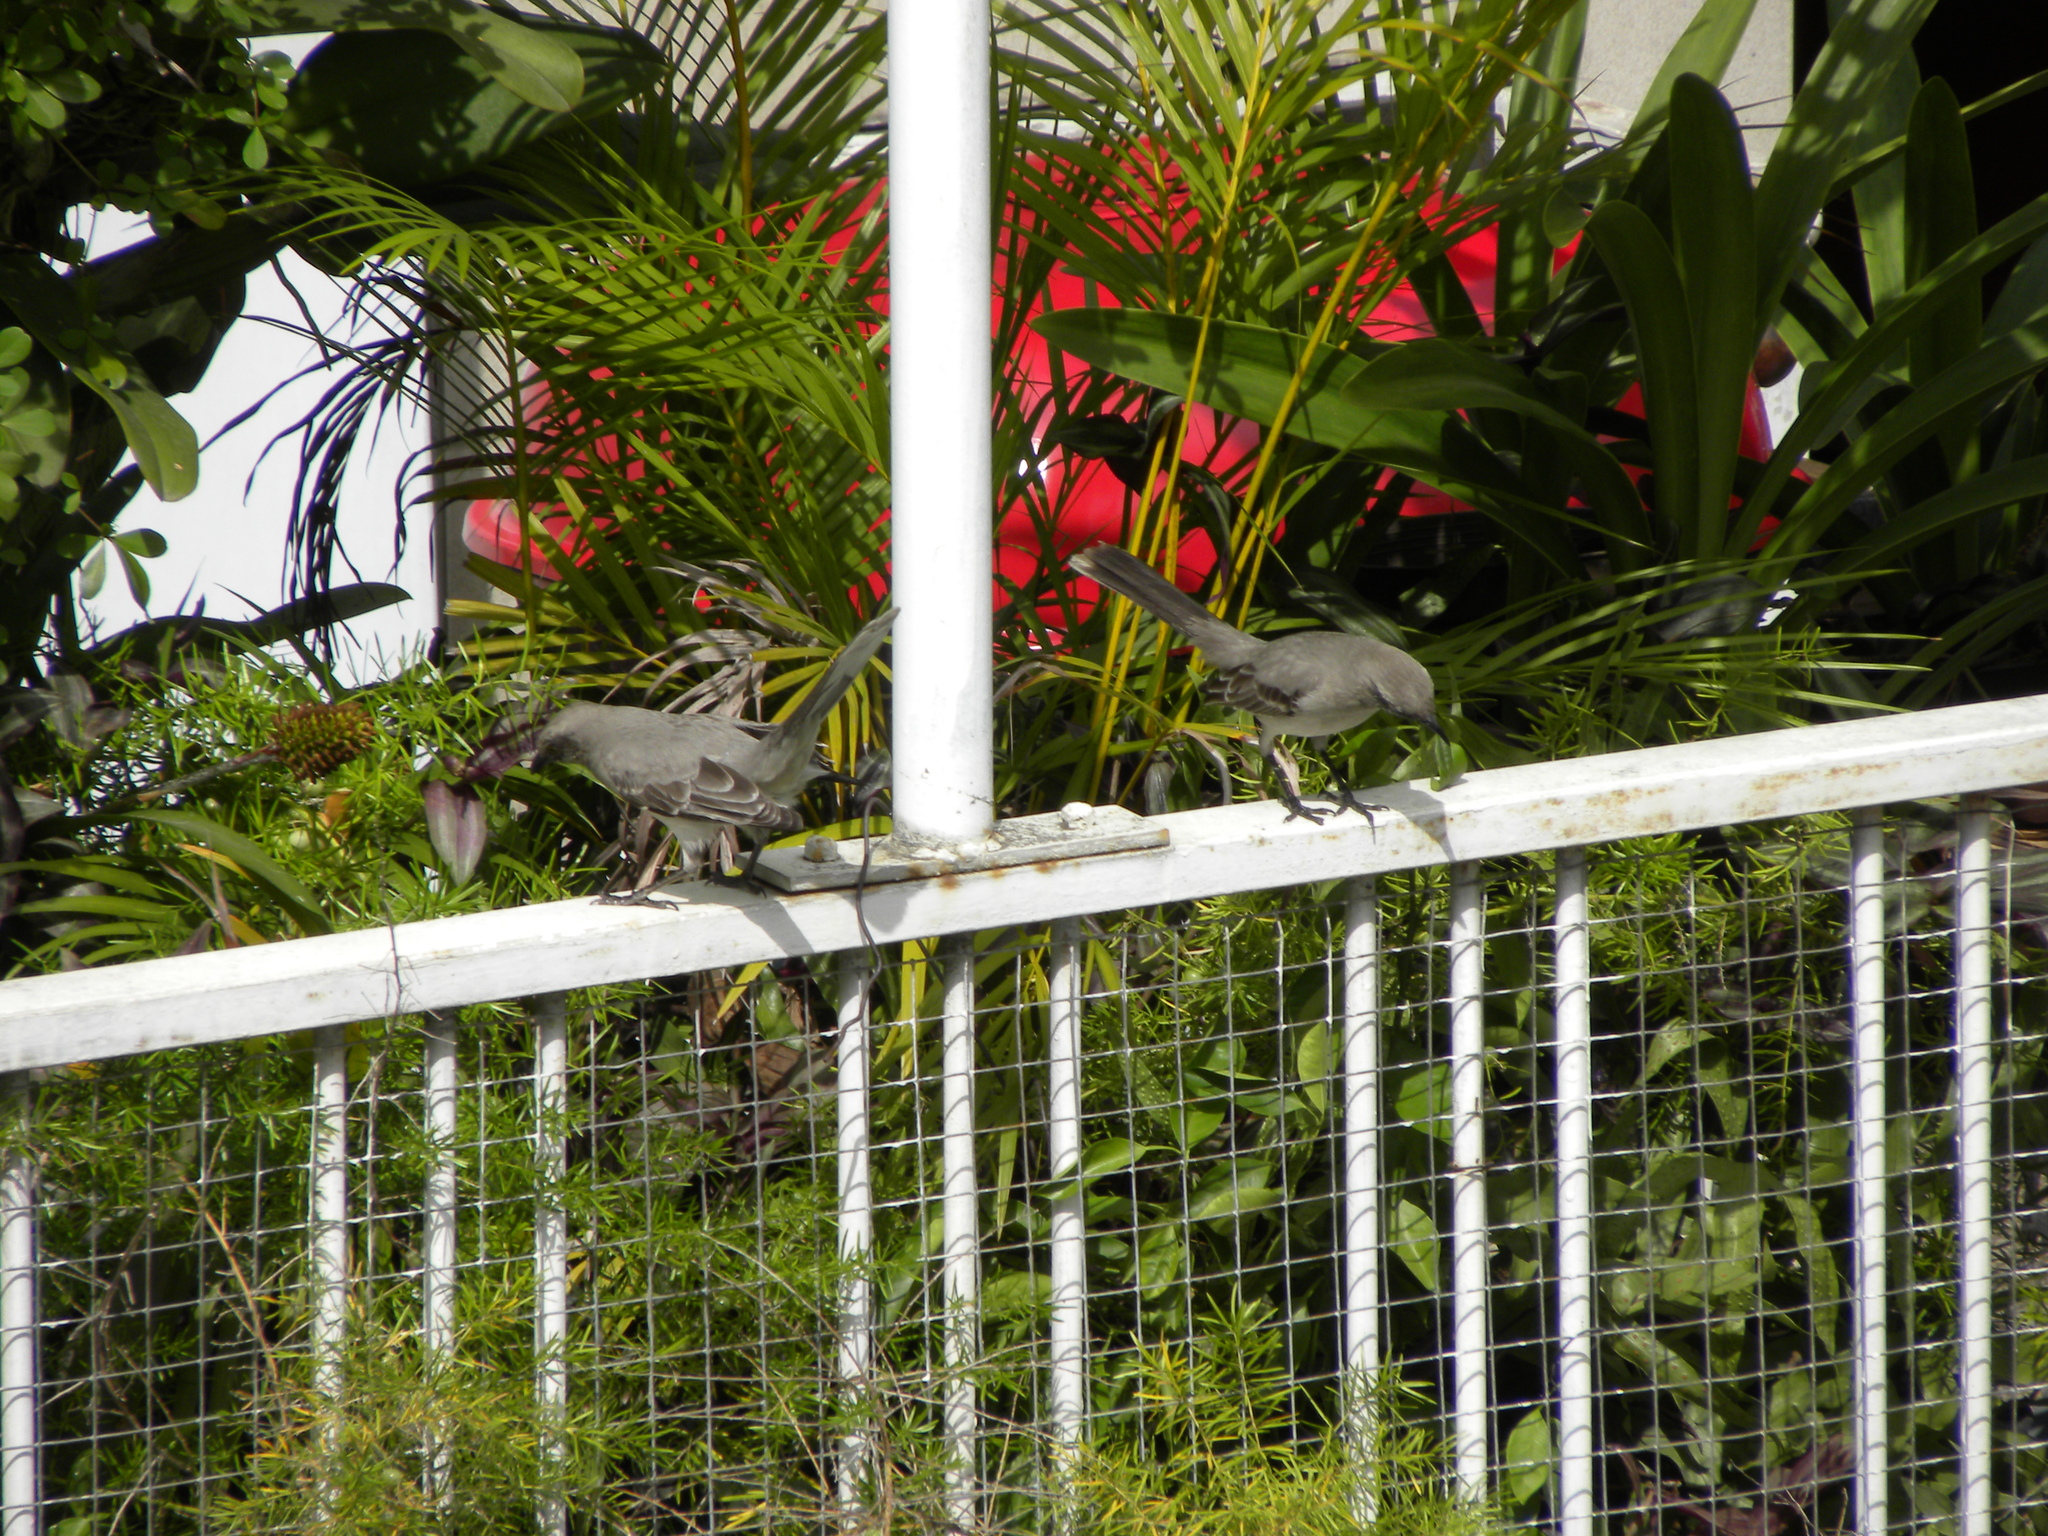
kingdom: Animalia
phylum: Chordata
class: Aves
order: Passeriformes
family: Mimidae
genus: Mimus
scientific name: Mimus gilvus
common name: Tropical mockingbird
